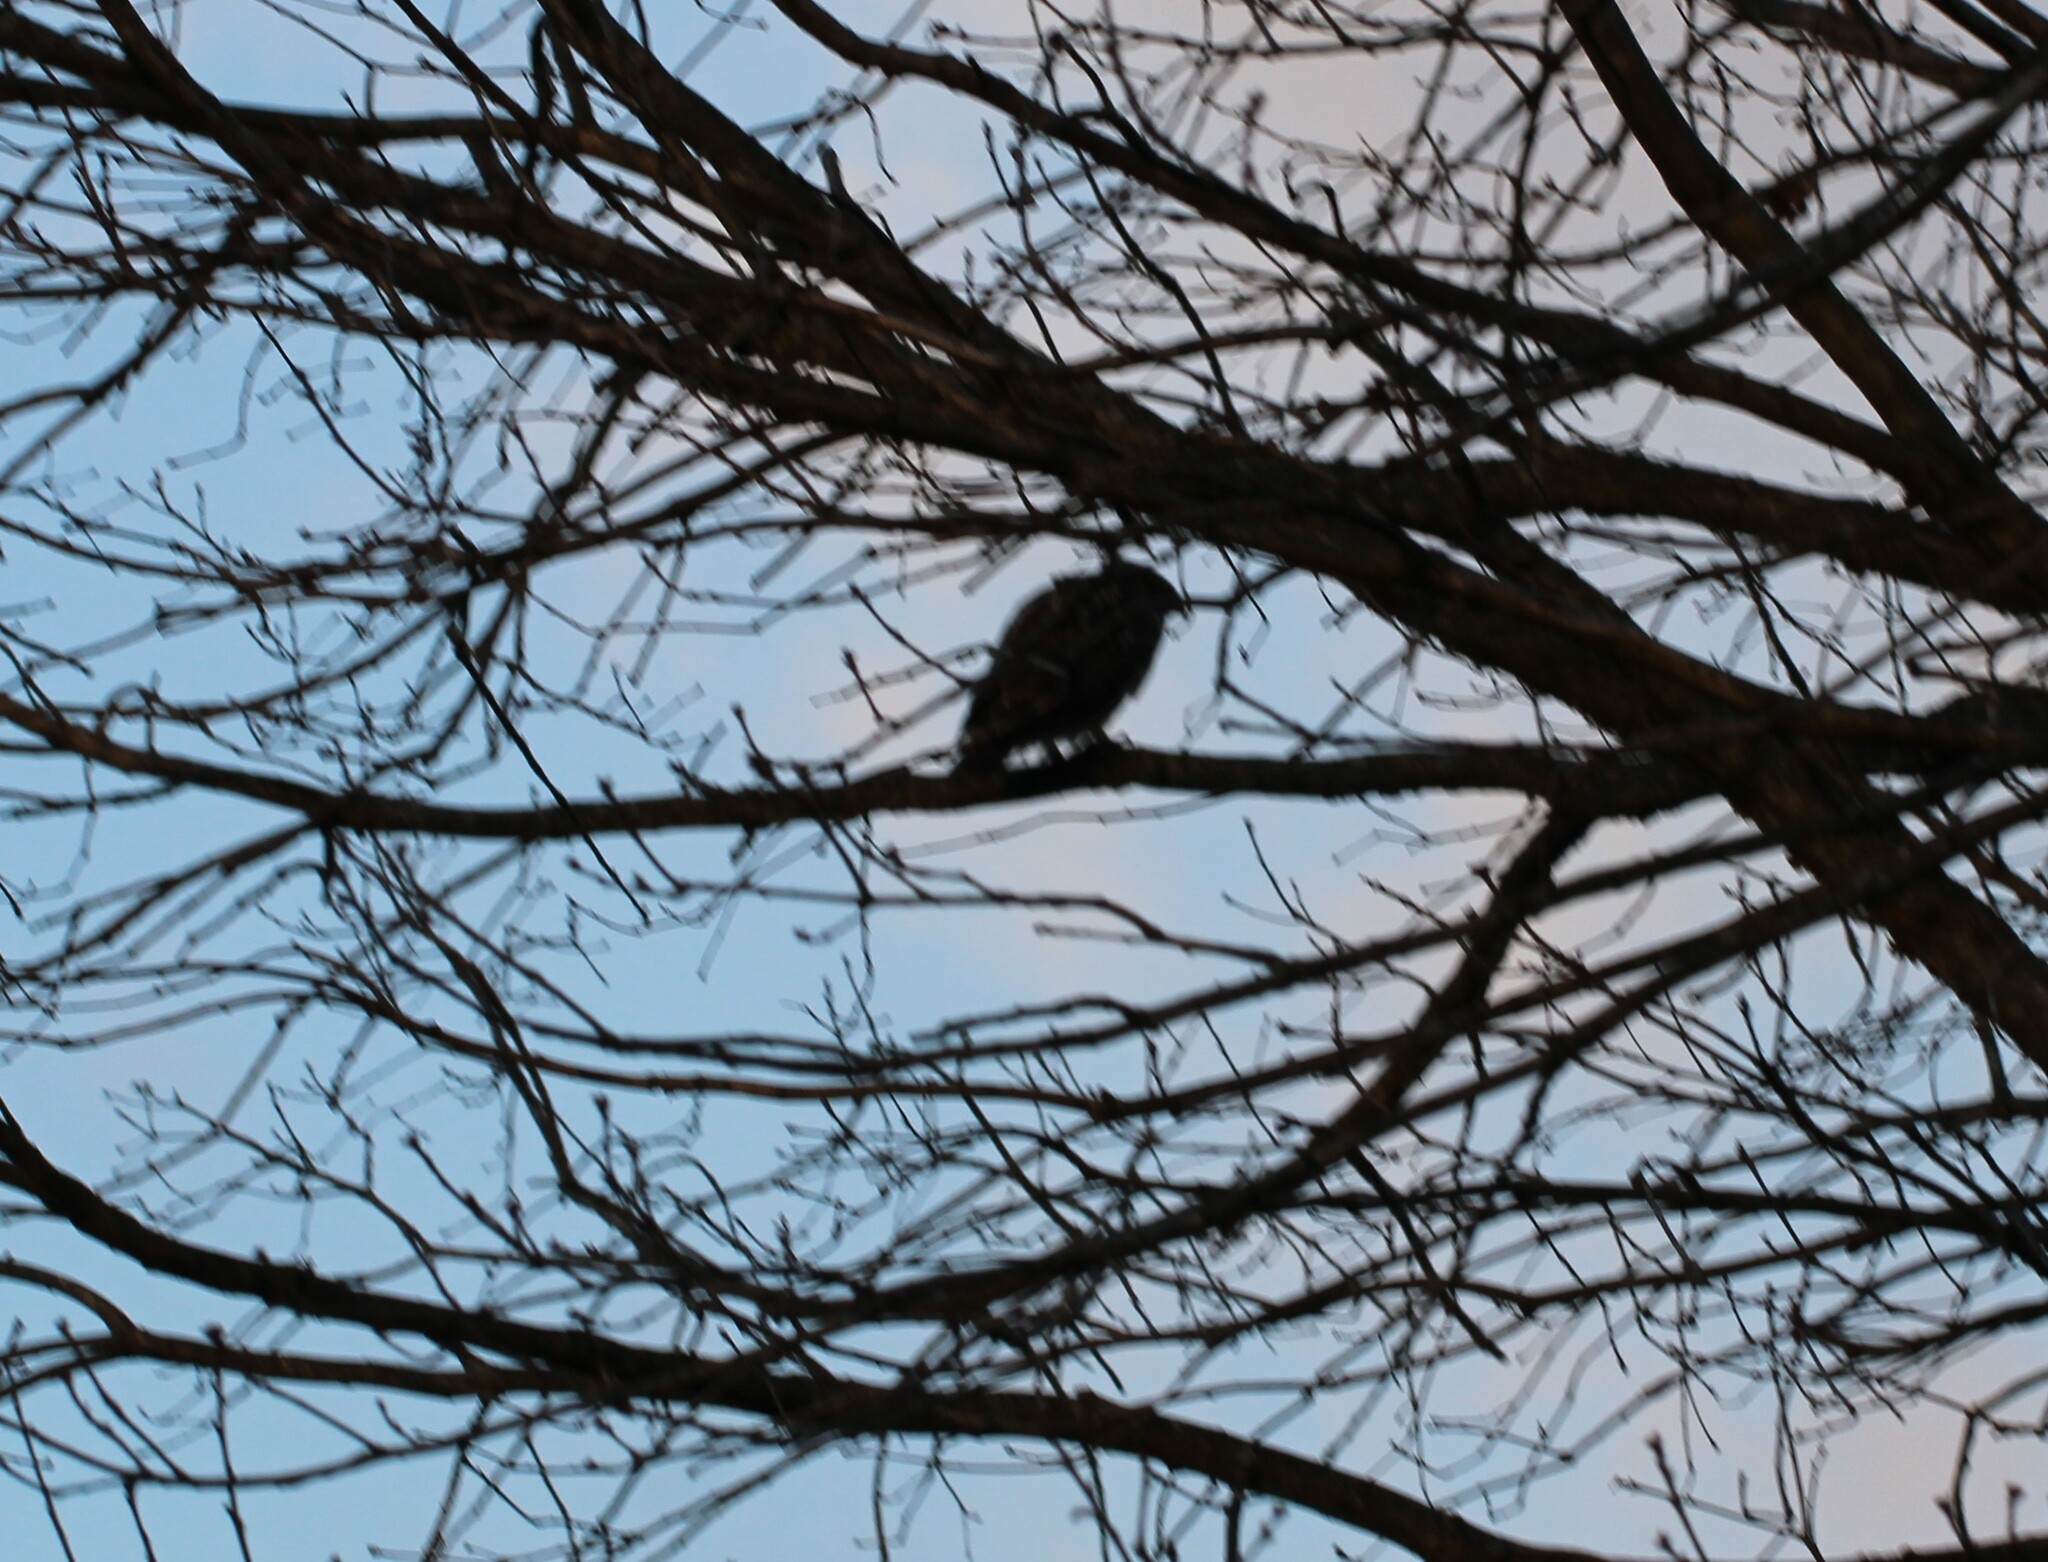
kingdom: Animalia
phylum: Chordata
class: Aves
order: Accipitriformes
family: Accipitridae
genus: Buteo
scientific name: Buteo lineatus
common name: Red-shouldered hawk
